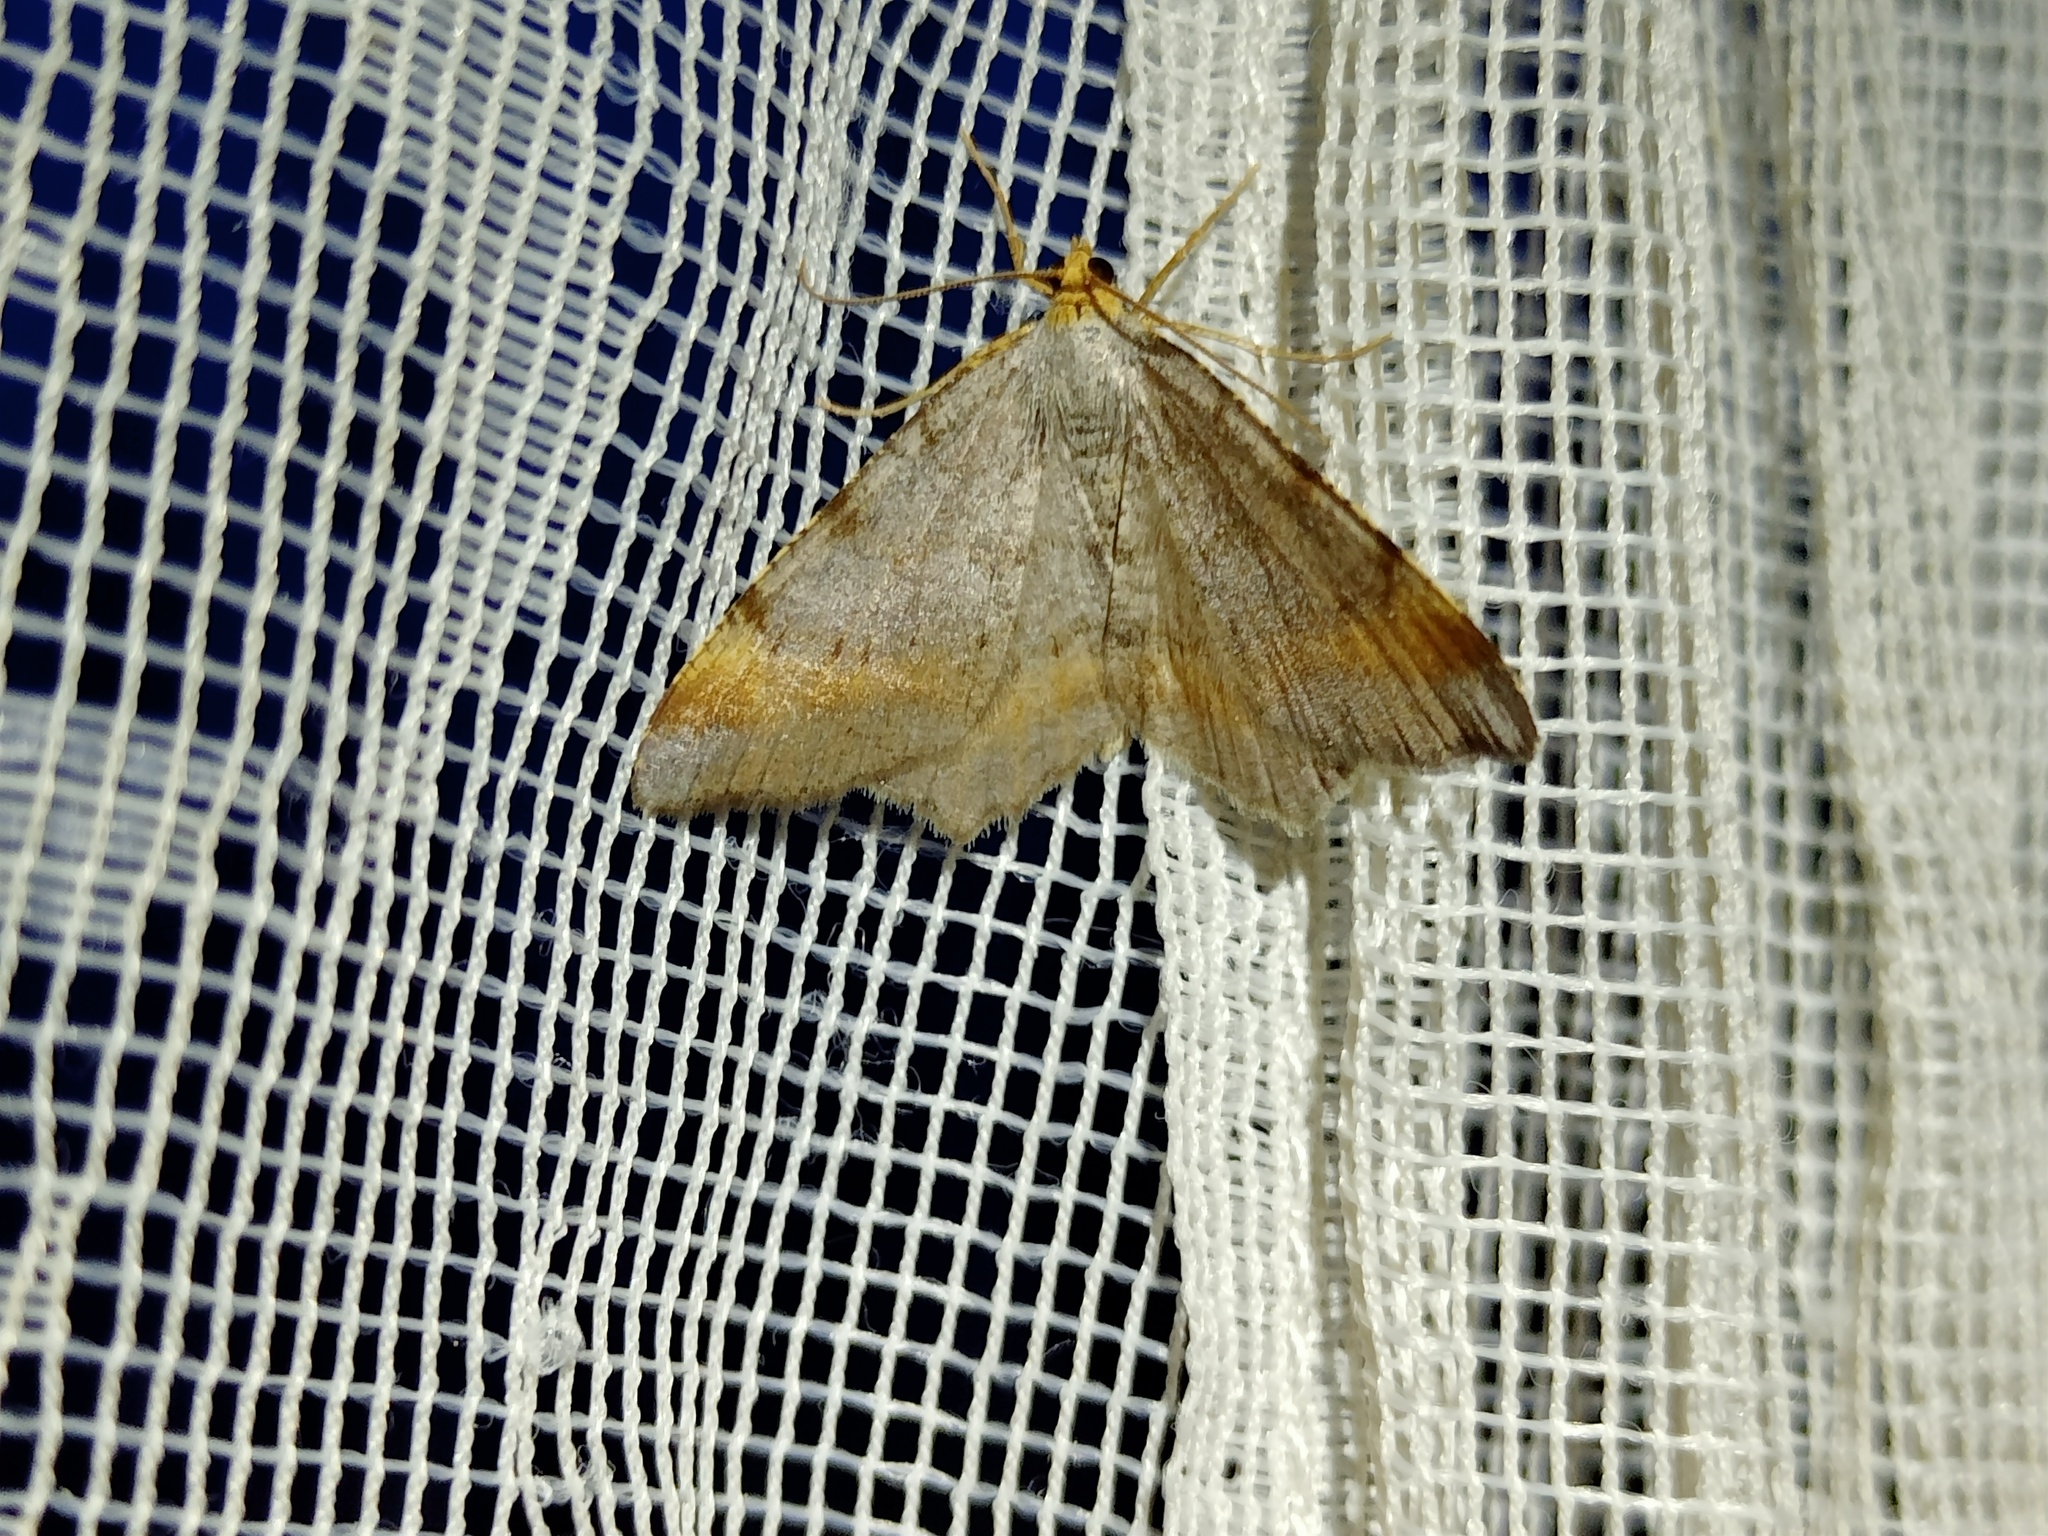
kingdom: Animalia
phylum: Arthropoda
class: Insecta
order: Lepidoptera
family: Geometridae
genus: Macaria
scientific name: Macaria liturata
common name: Tawny-barred angle
